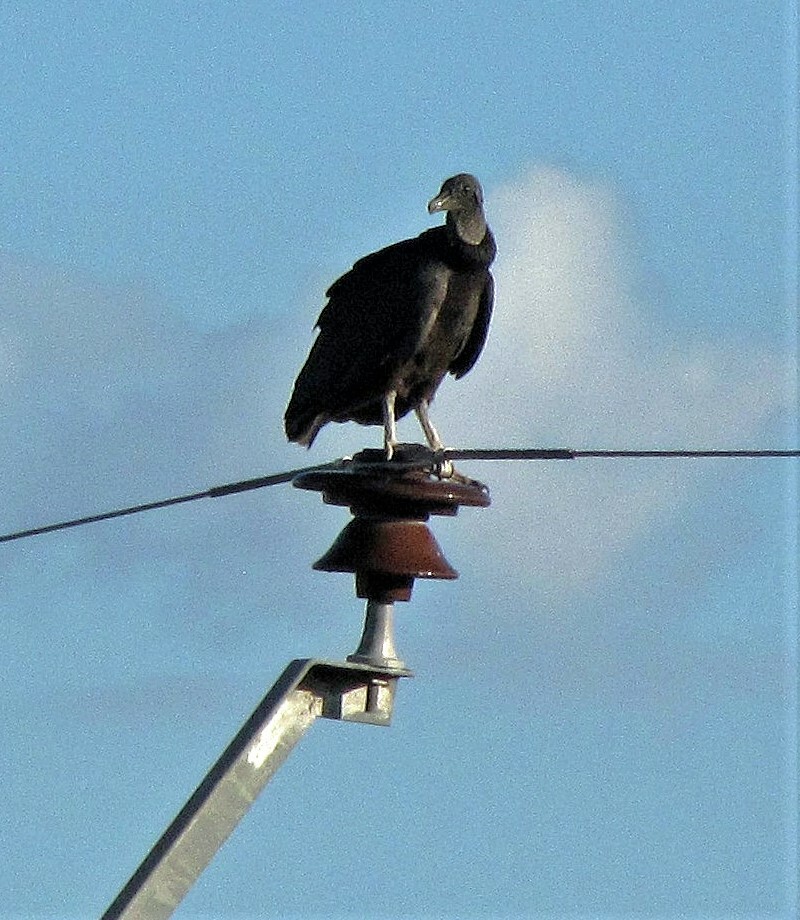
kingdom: Animalia
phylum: Chordata
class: Aves
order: Accipitriformes
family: Cathartidae
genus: Coragyps
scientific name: Coragyps atratus
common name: Black vulture
